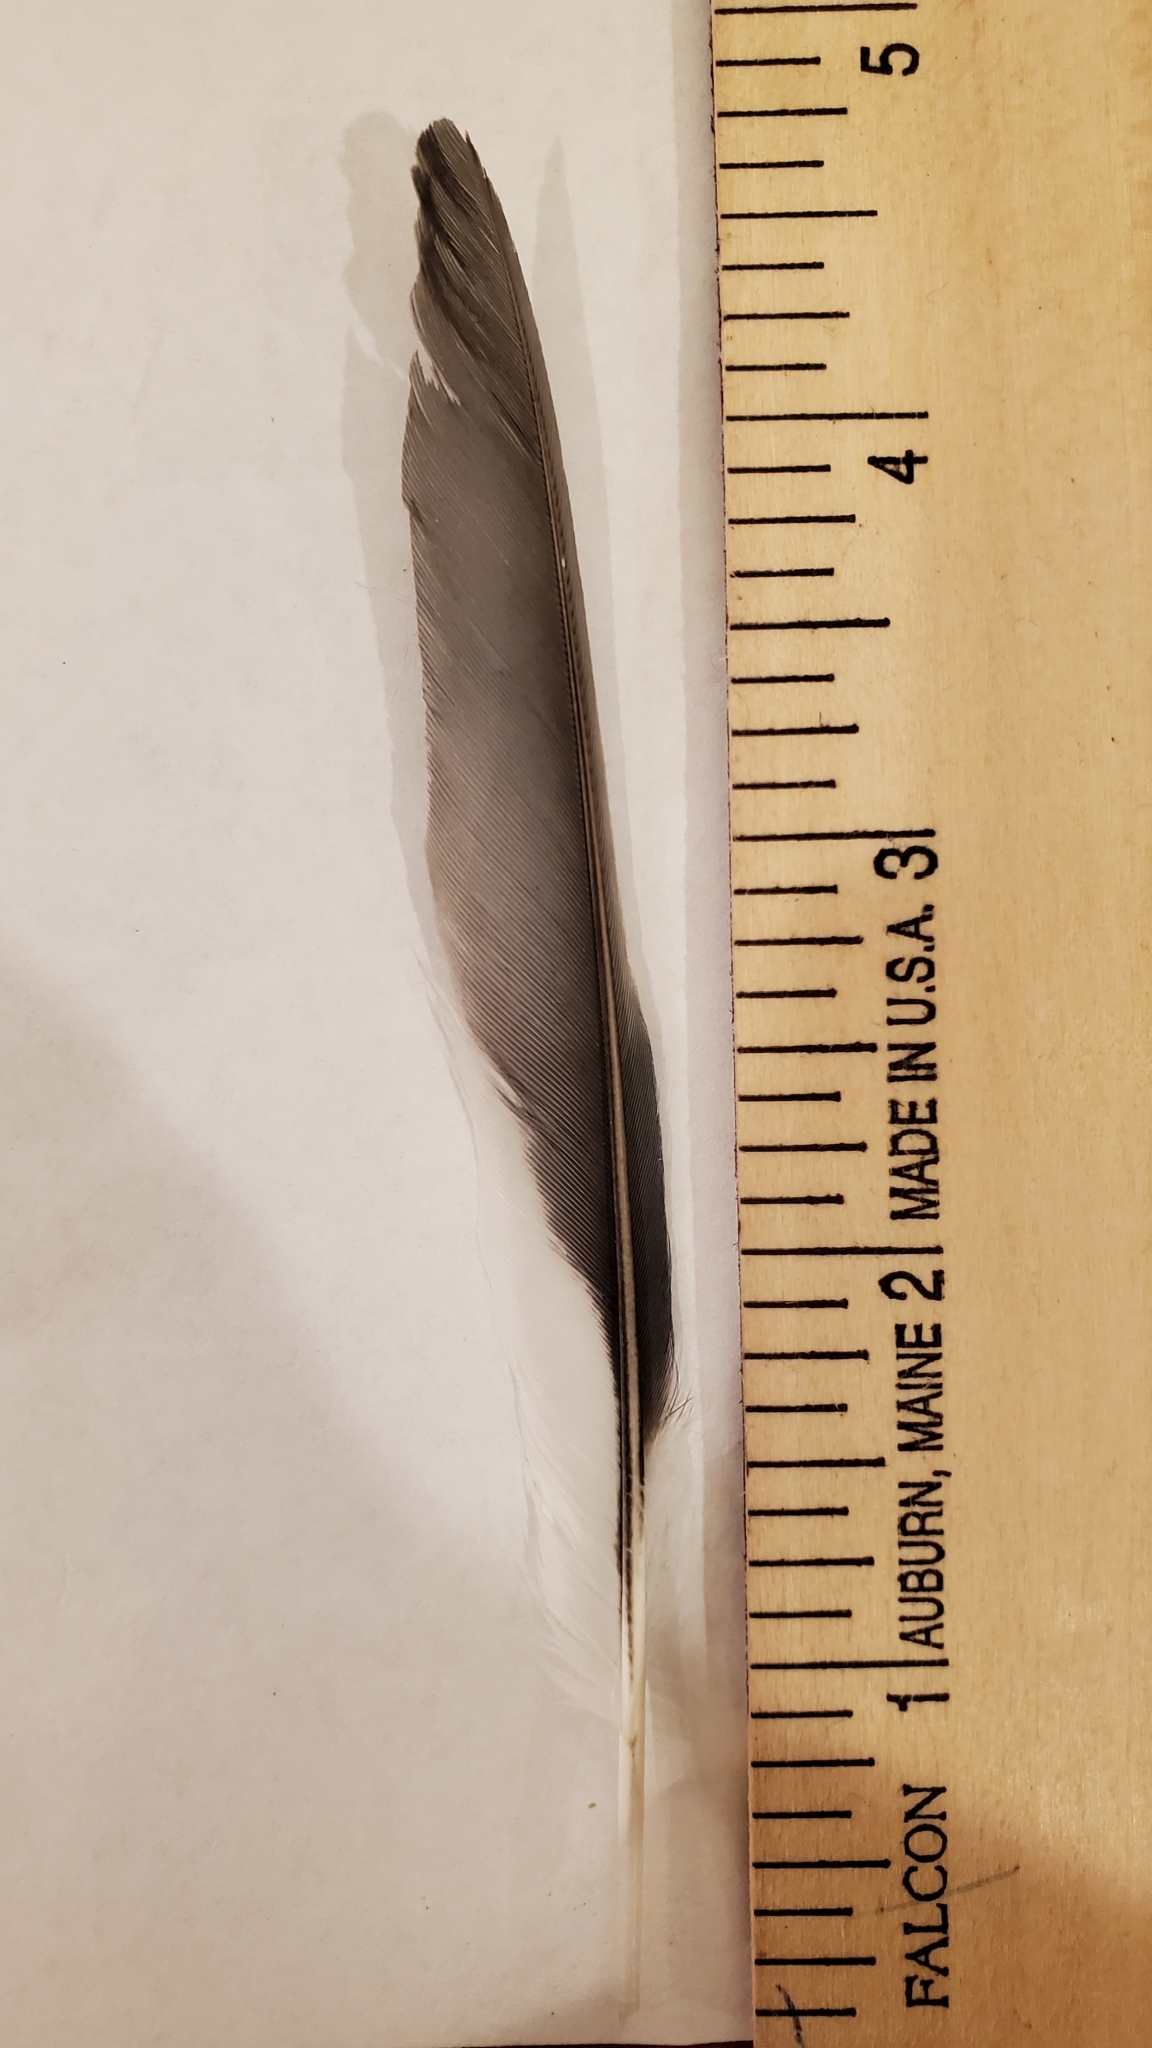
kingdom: Animalia
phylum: Chordata
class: Aves
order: Passeriformes
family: Corvidae
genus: Cyanocitta
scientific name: Cyanocitta cristata
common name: Blue jay
